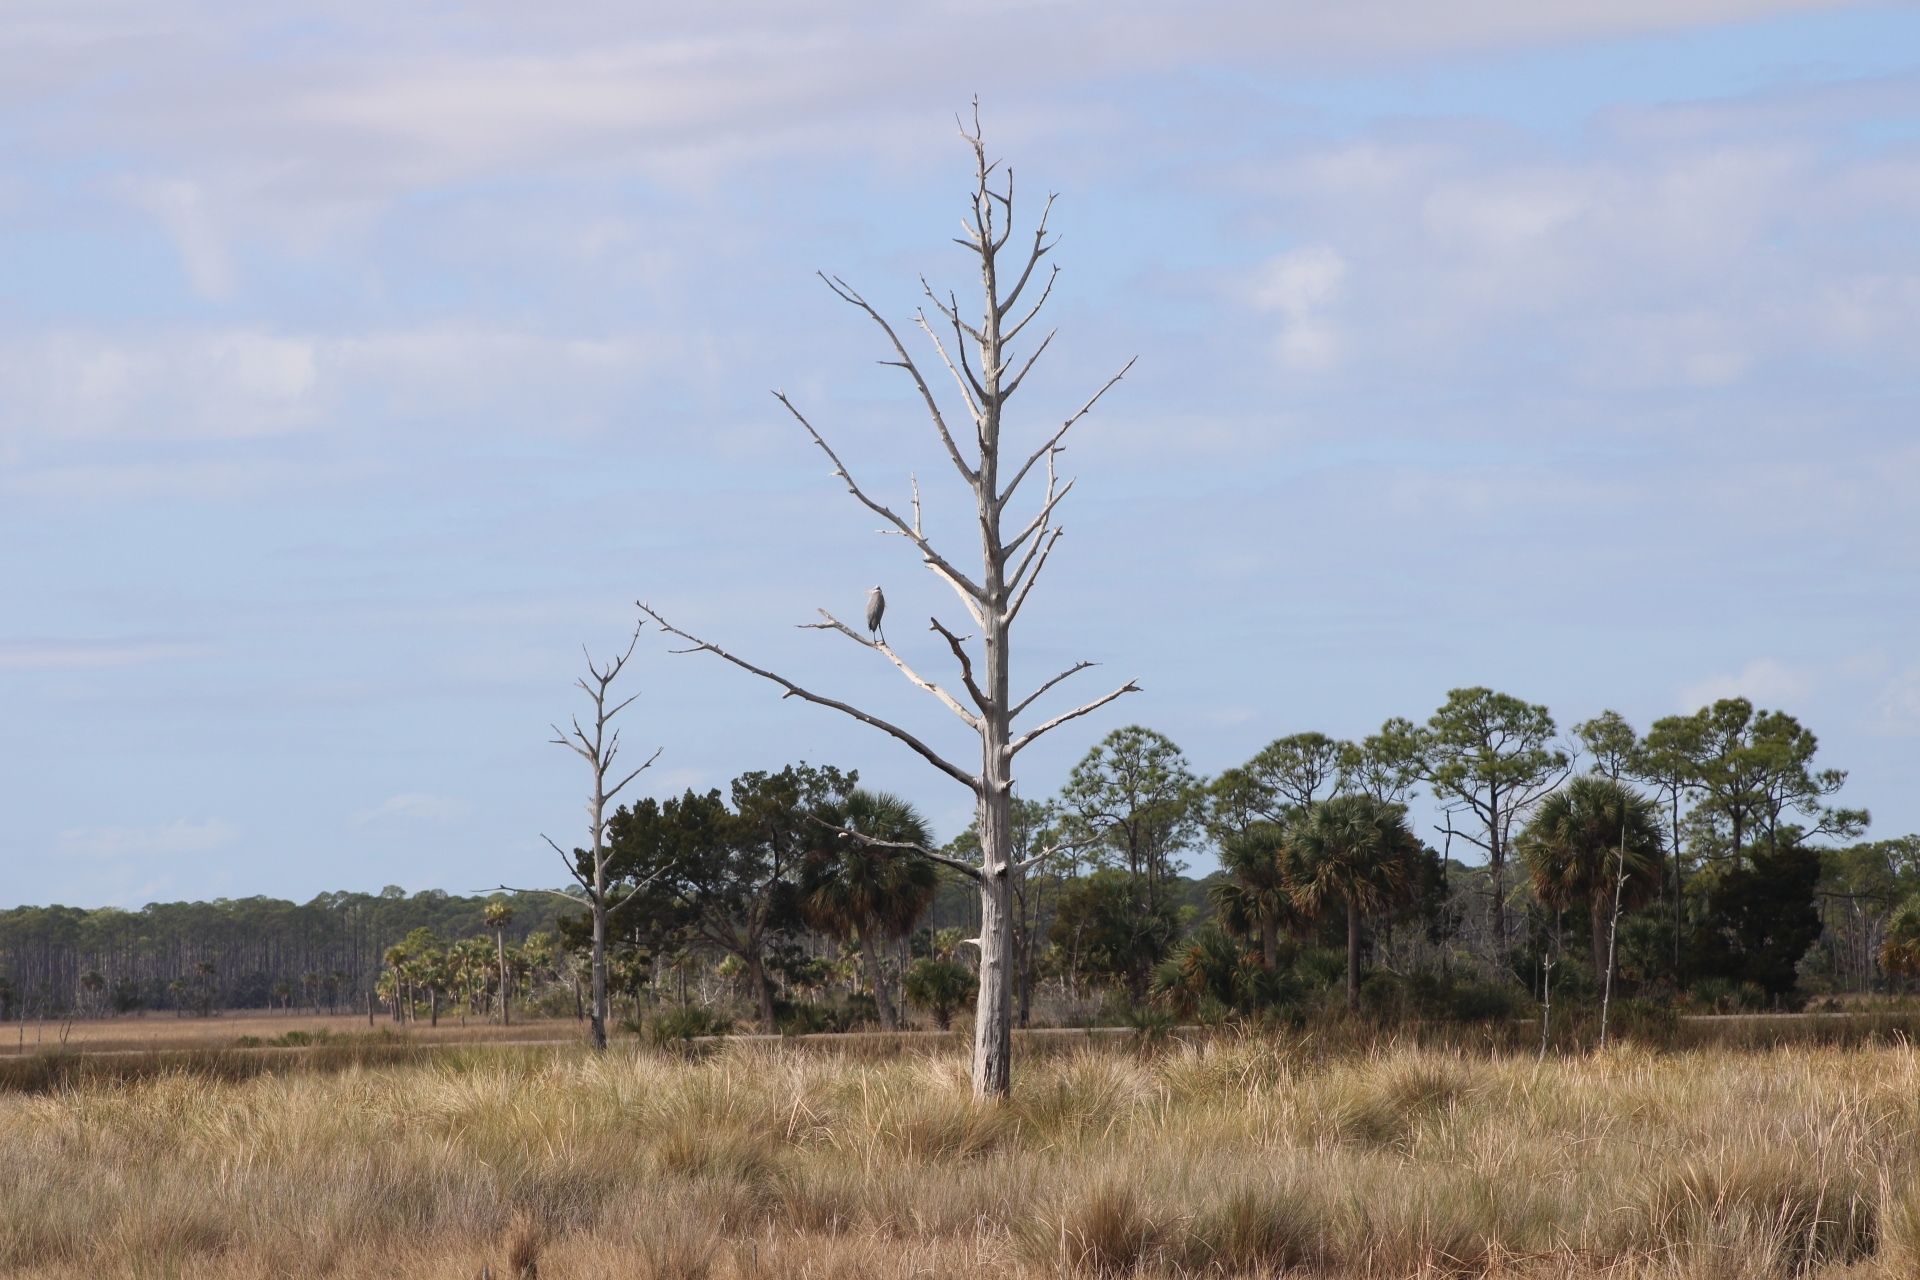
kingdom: Animalia
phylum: Chordata
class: Aves
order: Pelecaniformes
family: Ardeidae
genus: Ardea
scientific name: Ardea herodias
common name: Great blue heron
